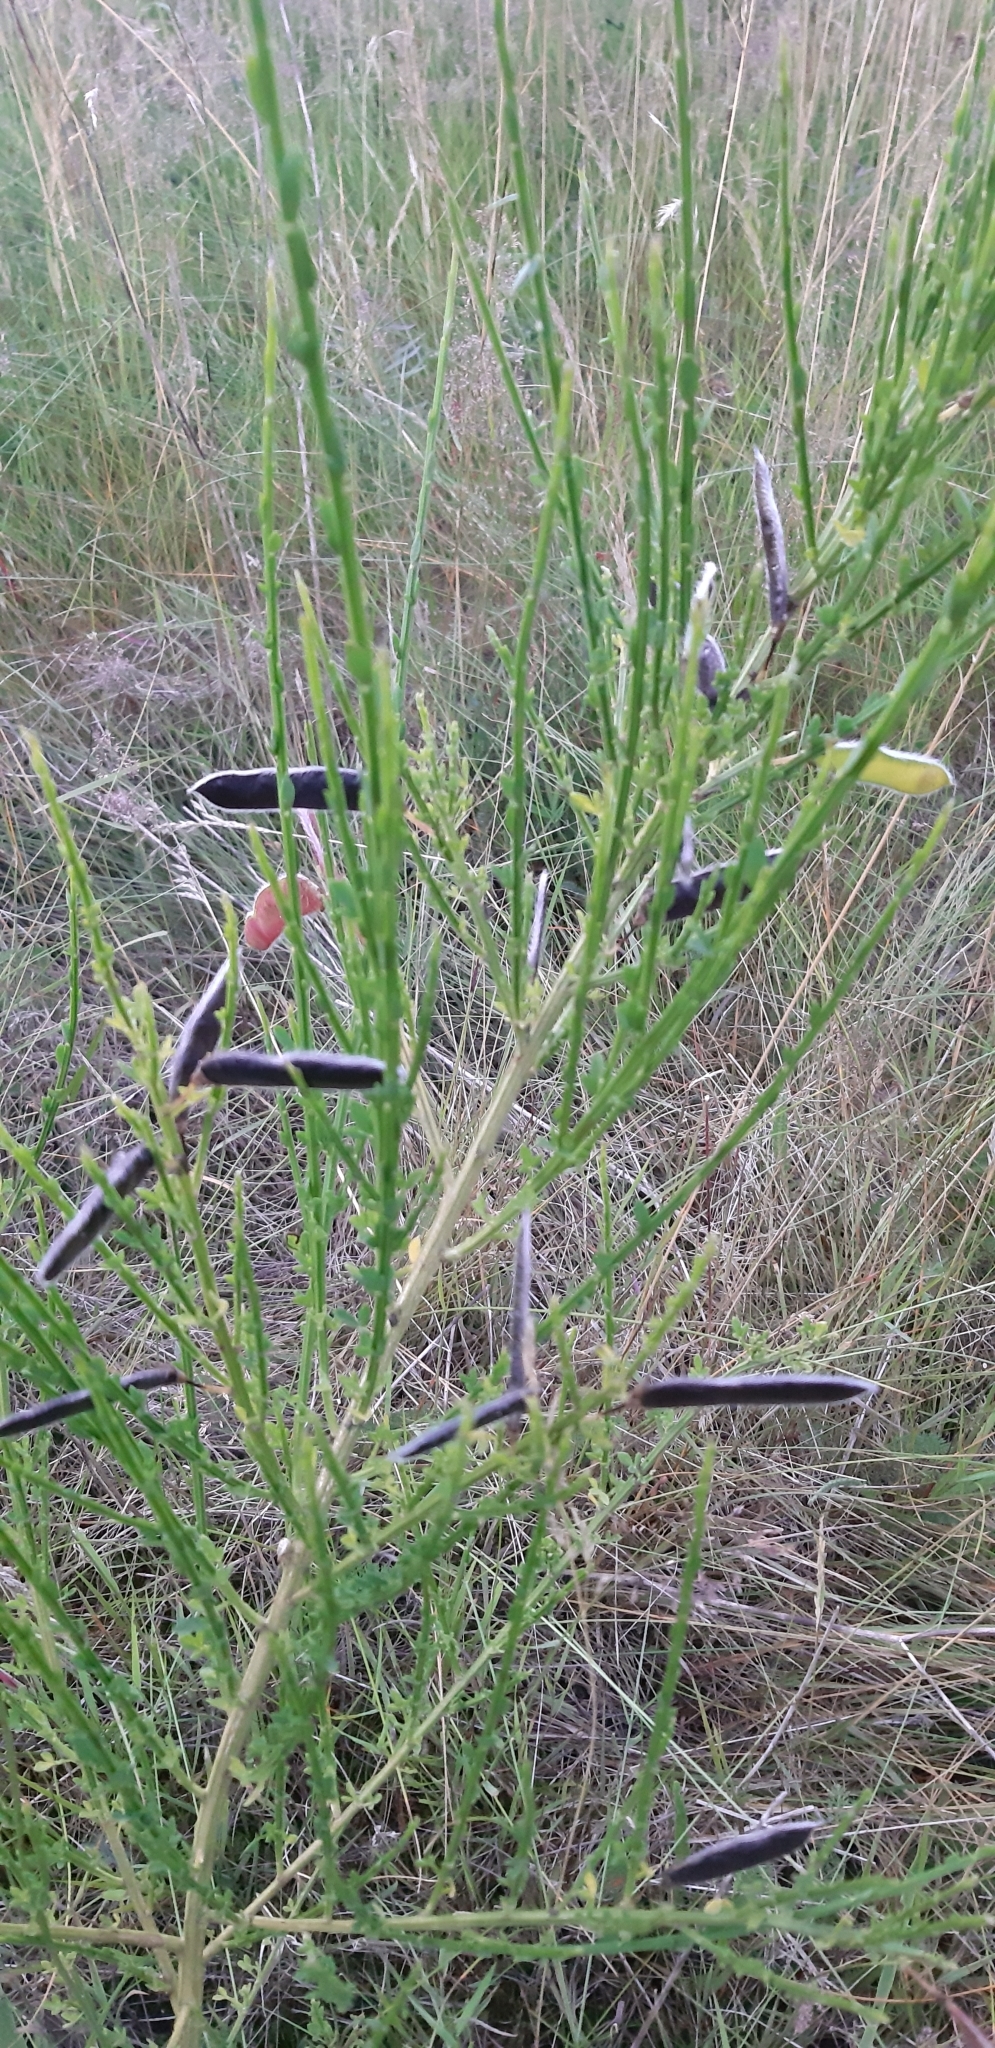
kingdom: Plantae
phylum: Tracheophyta
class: Magnoliopsida
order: Fabales
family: Fabaceae
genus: Cytisus
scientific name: Cytisus scoparius
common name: Scotch broom
